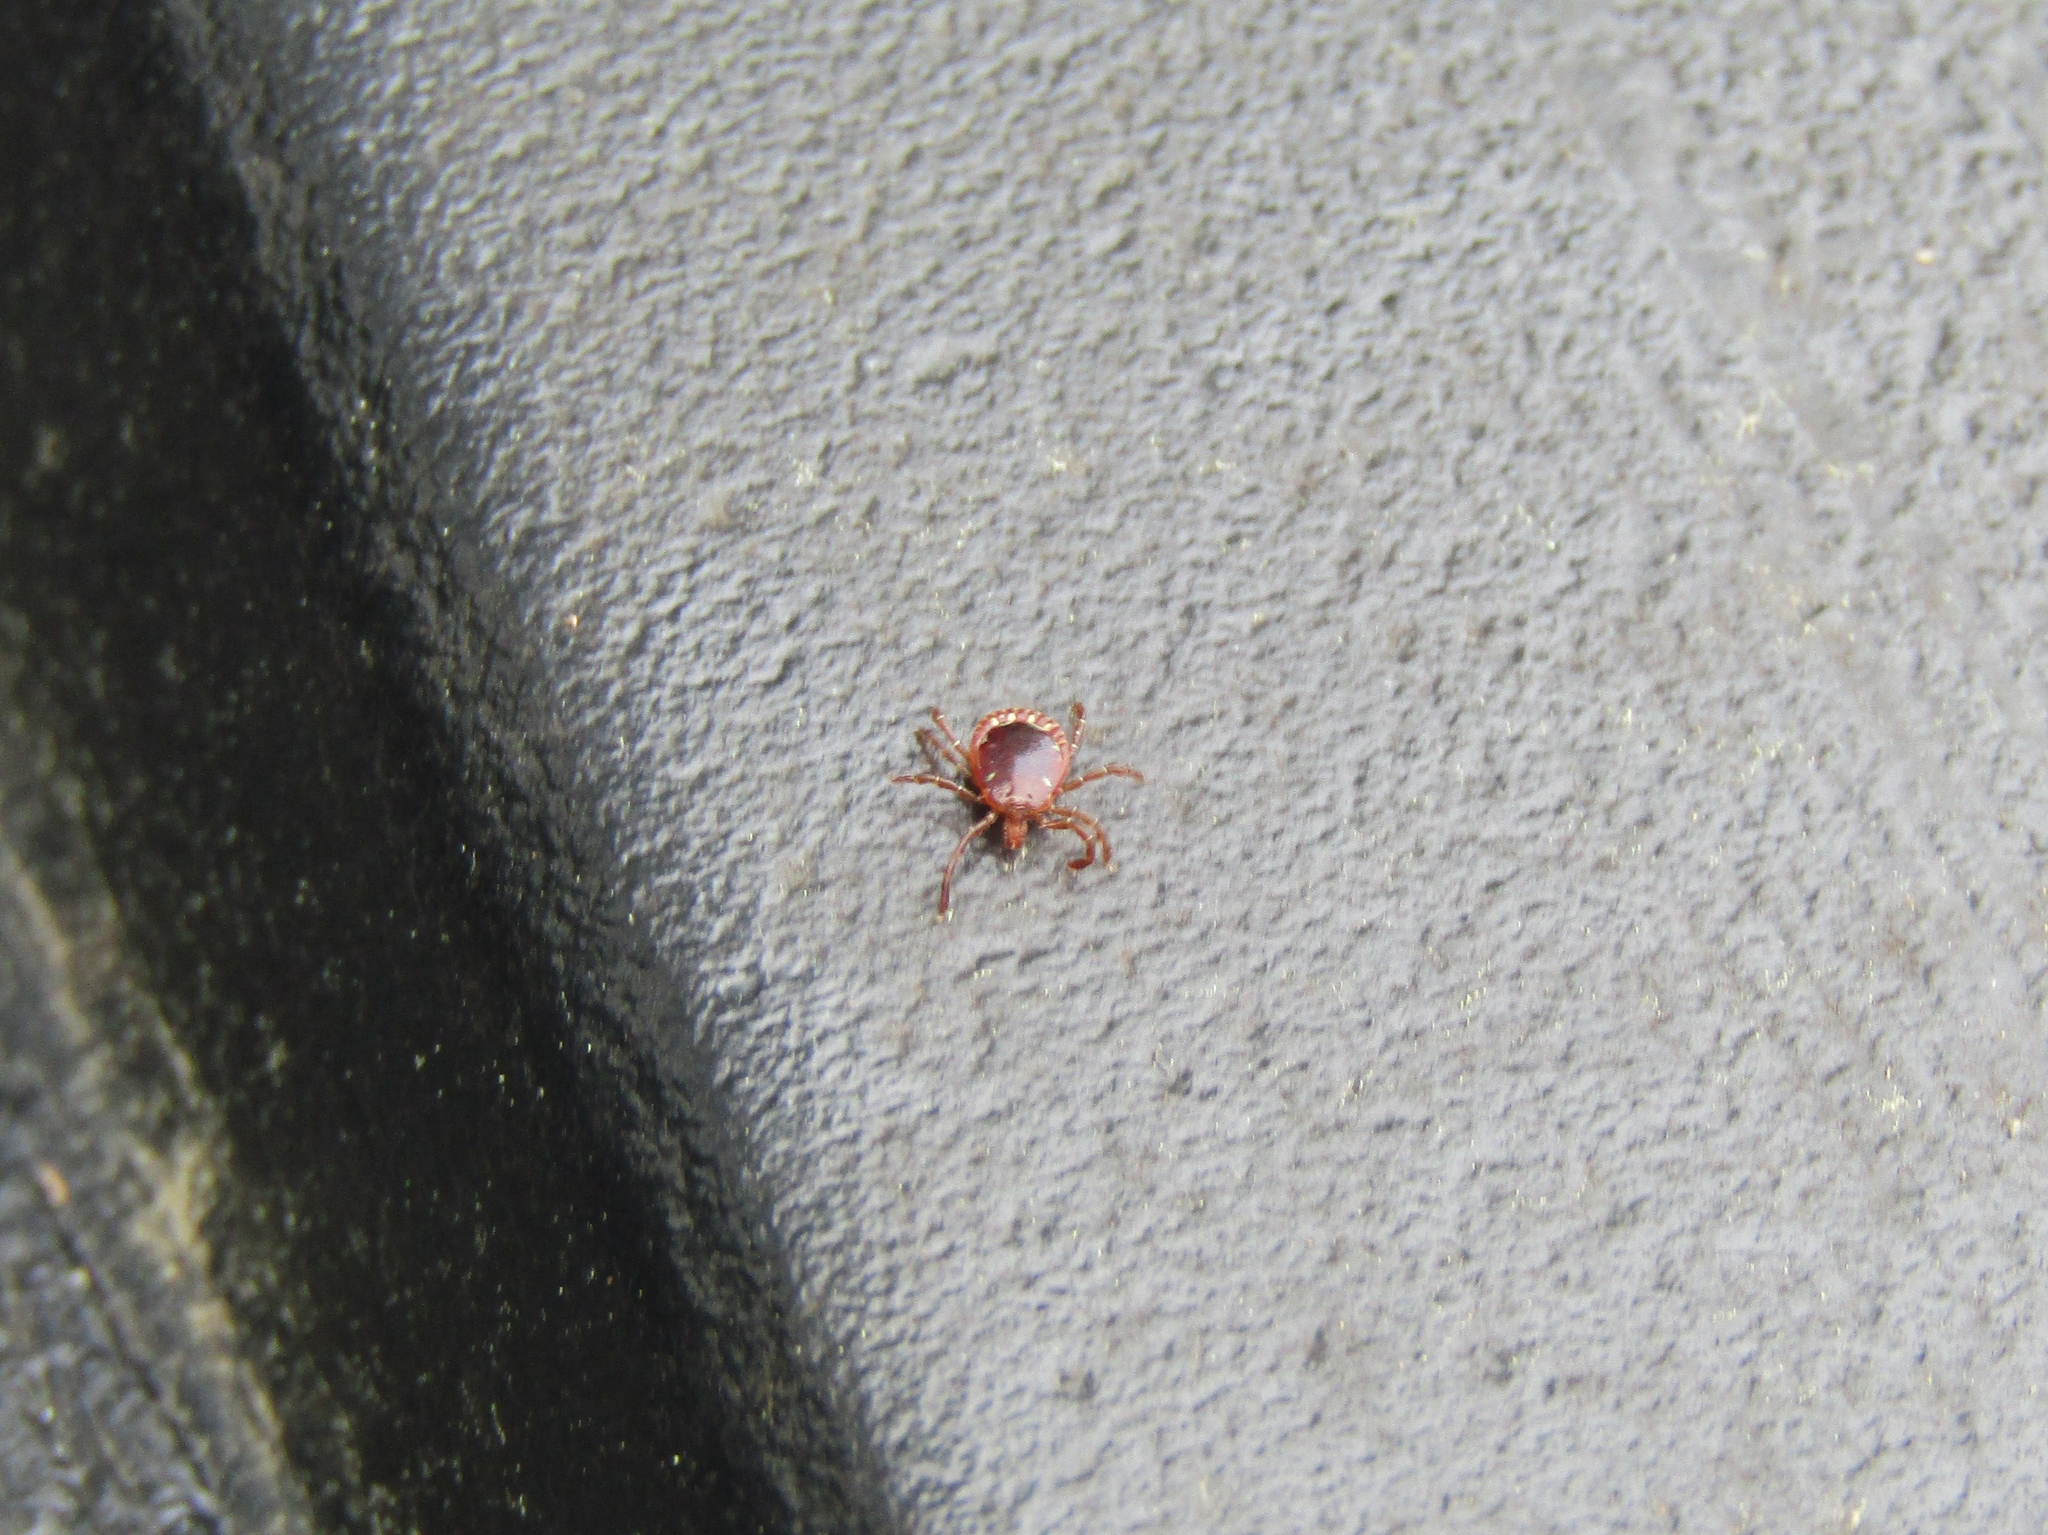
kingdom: Animalia
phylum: Arthropoda
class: Arachnida
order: Ixodida
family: Ixodidae
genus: Amblyomma
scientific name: Amblyomma americanum
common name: Lone star tick
